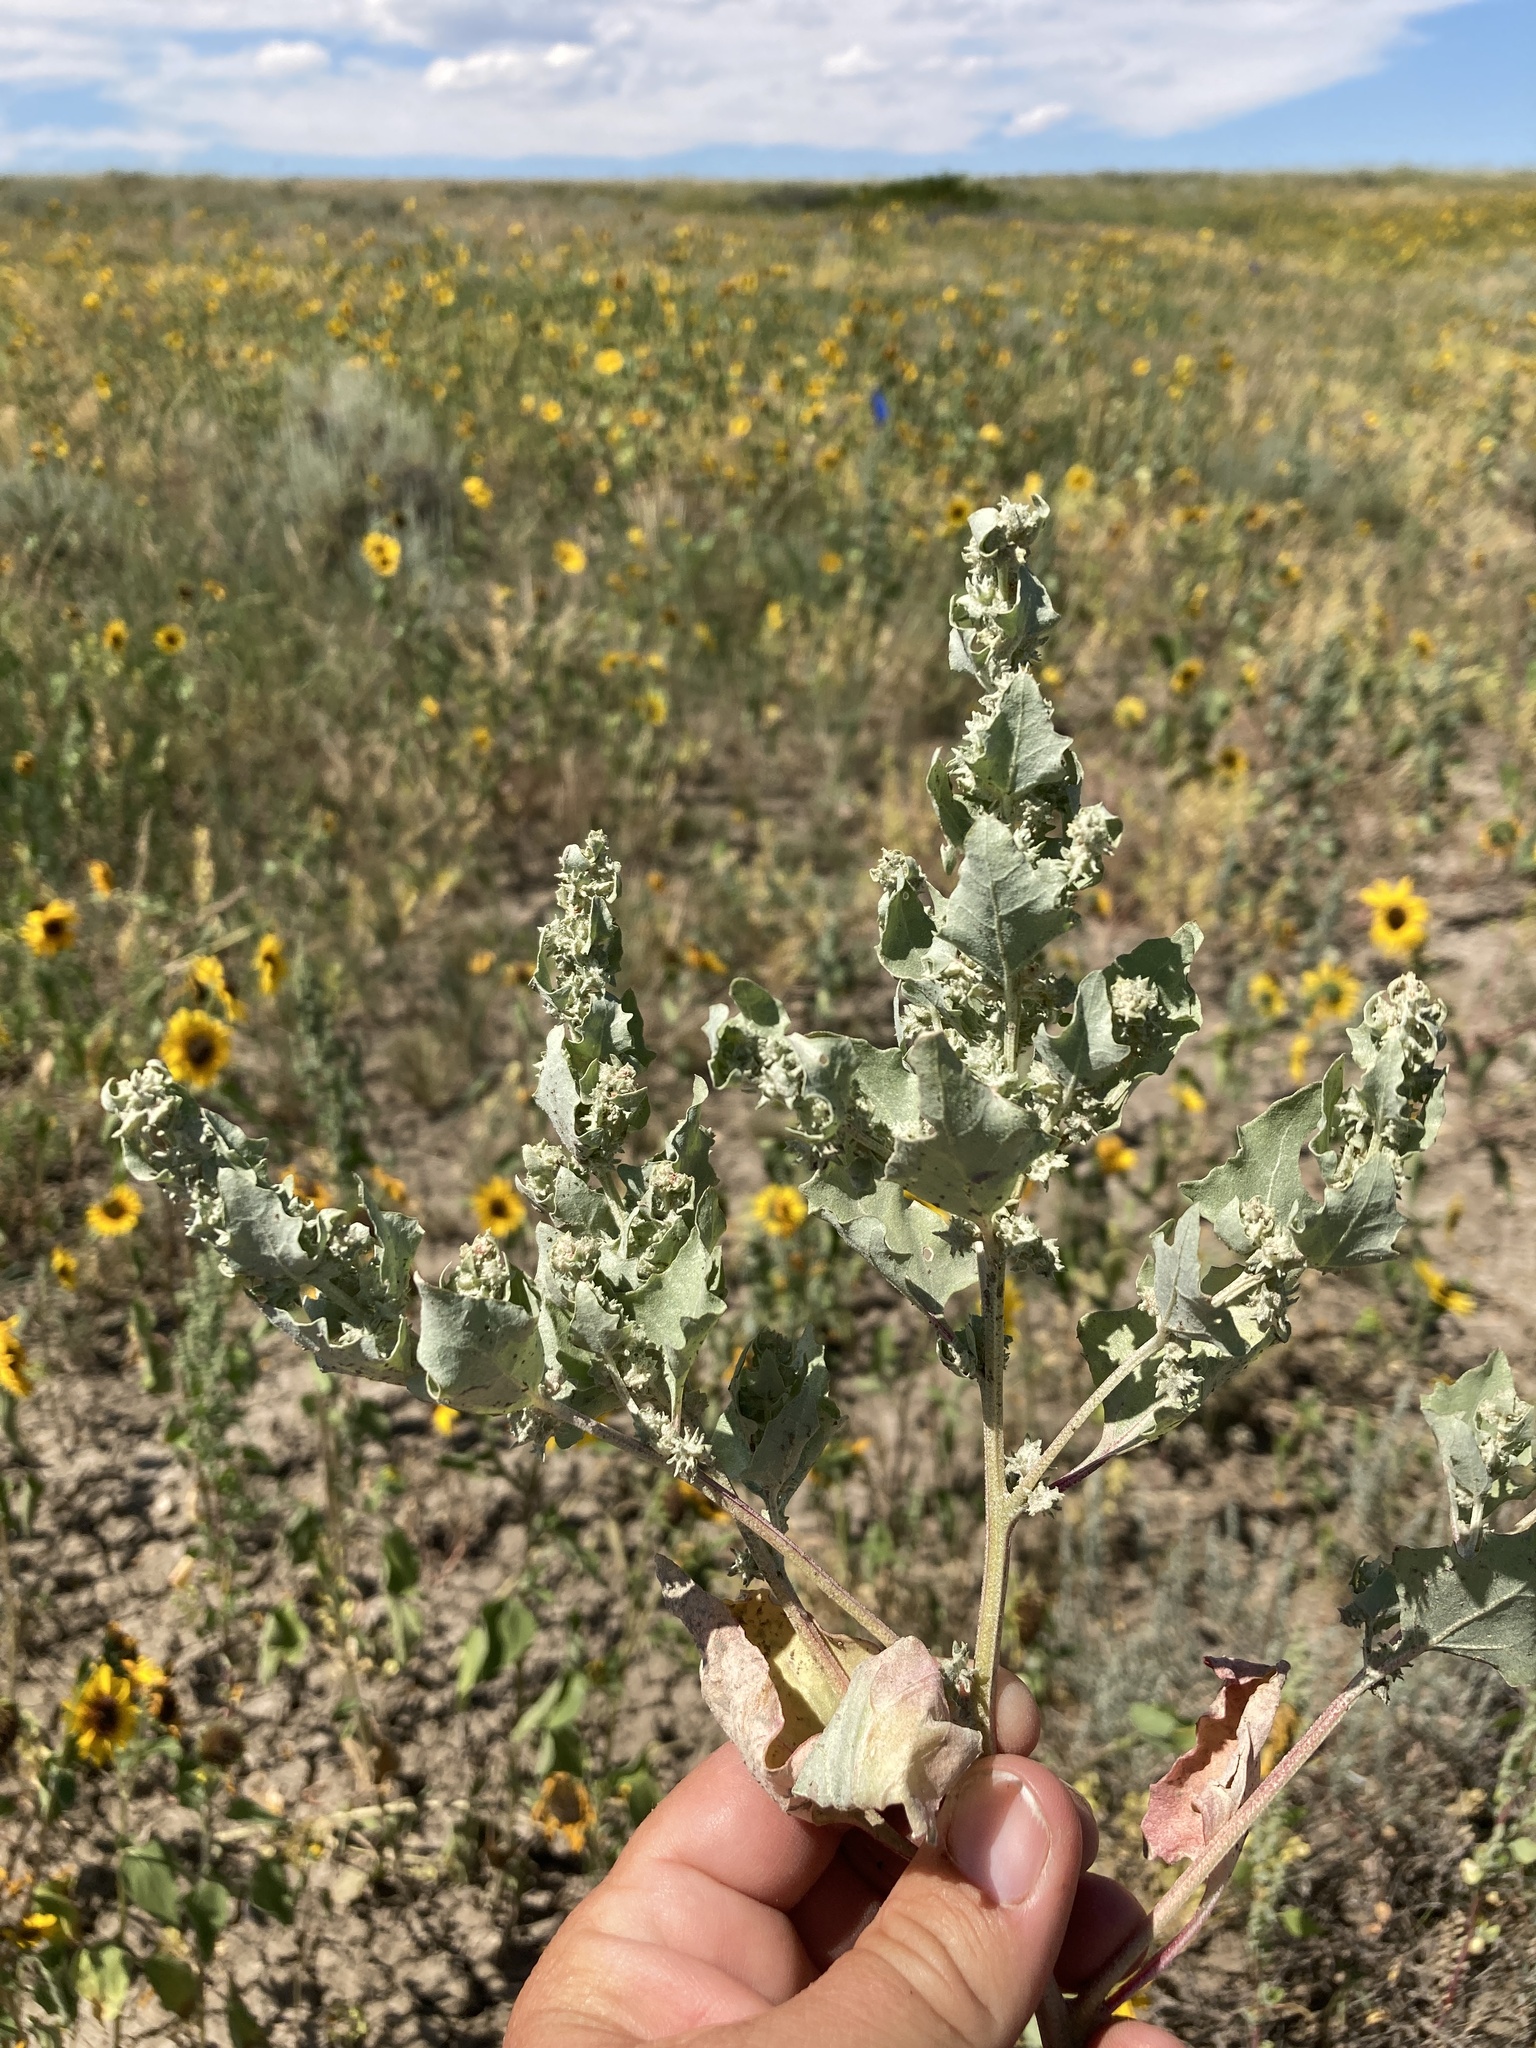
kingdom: Plantae
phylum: Tracheophyta
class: Magnoliopsida
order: Caryophyllales
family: Amaranthaceae
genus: Atriplex
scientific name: Atriplex argentea
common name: Silverscale
